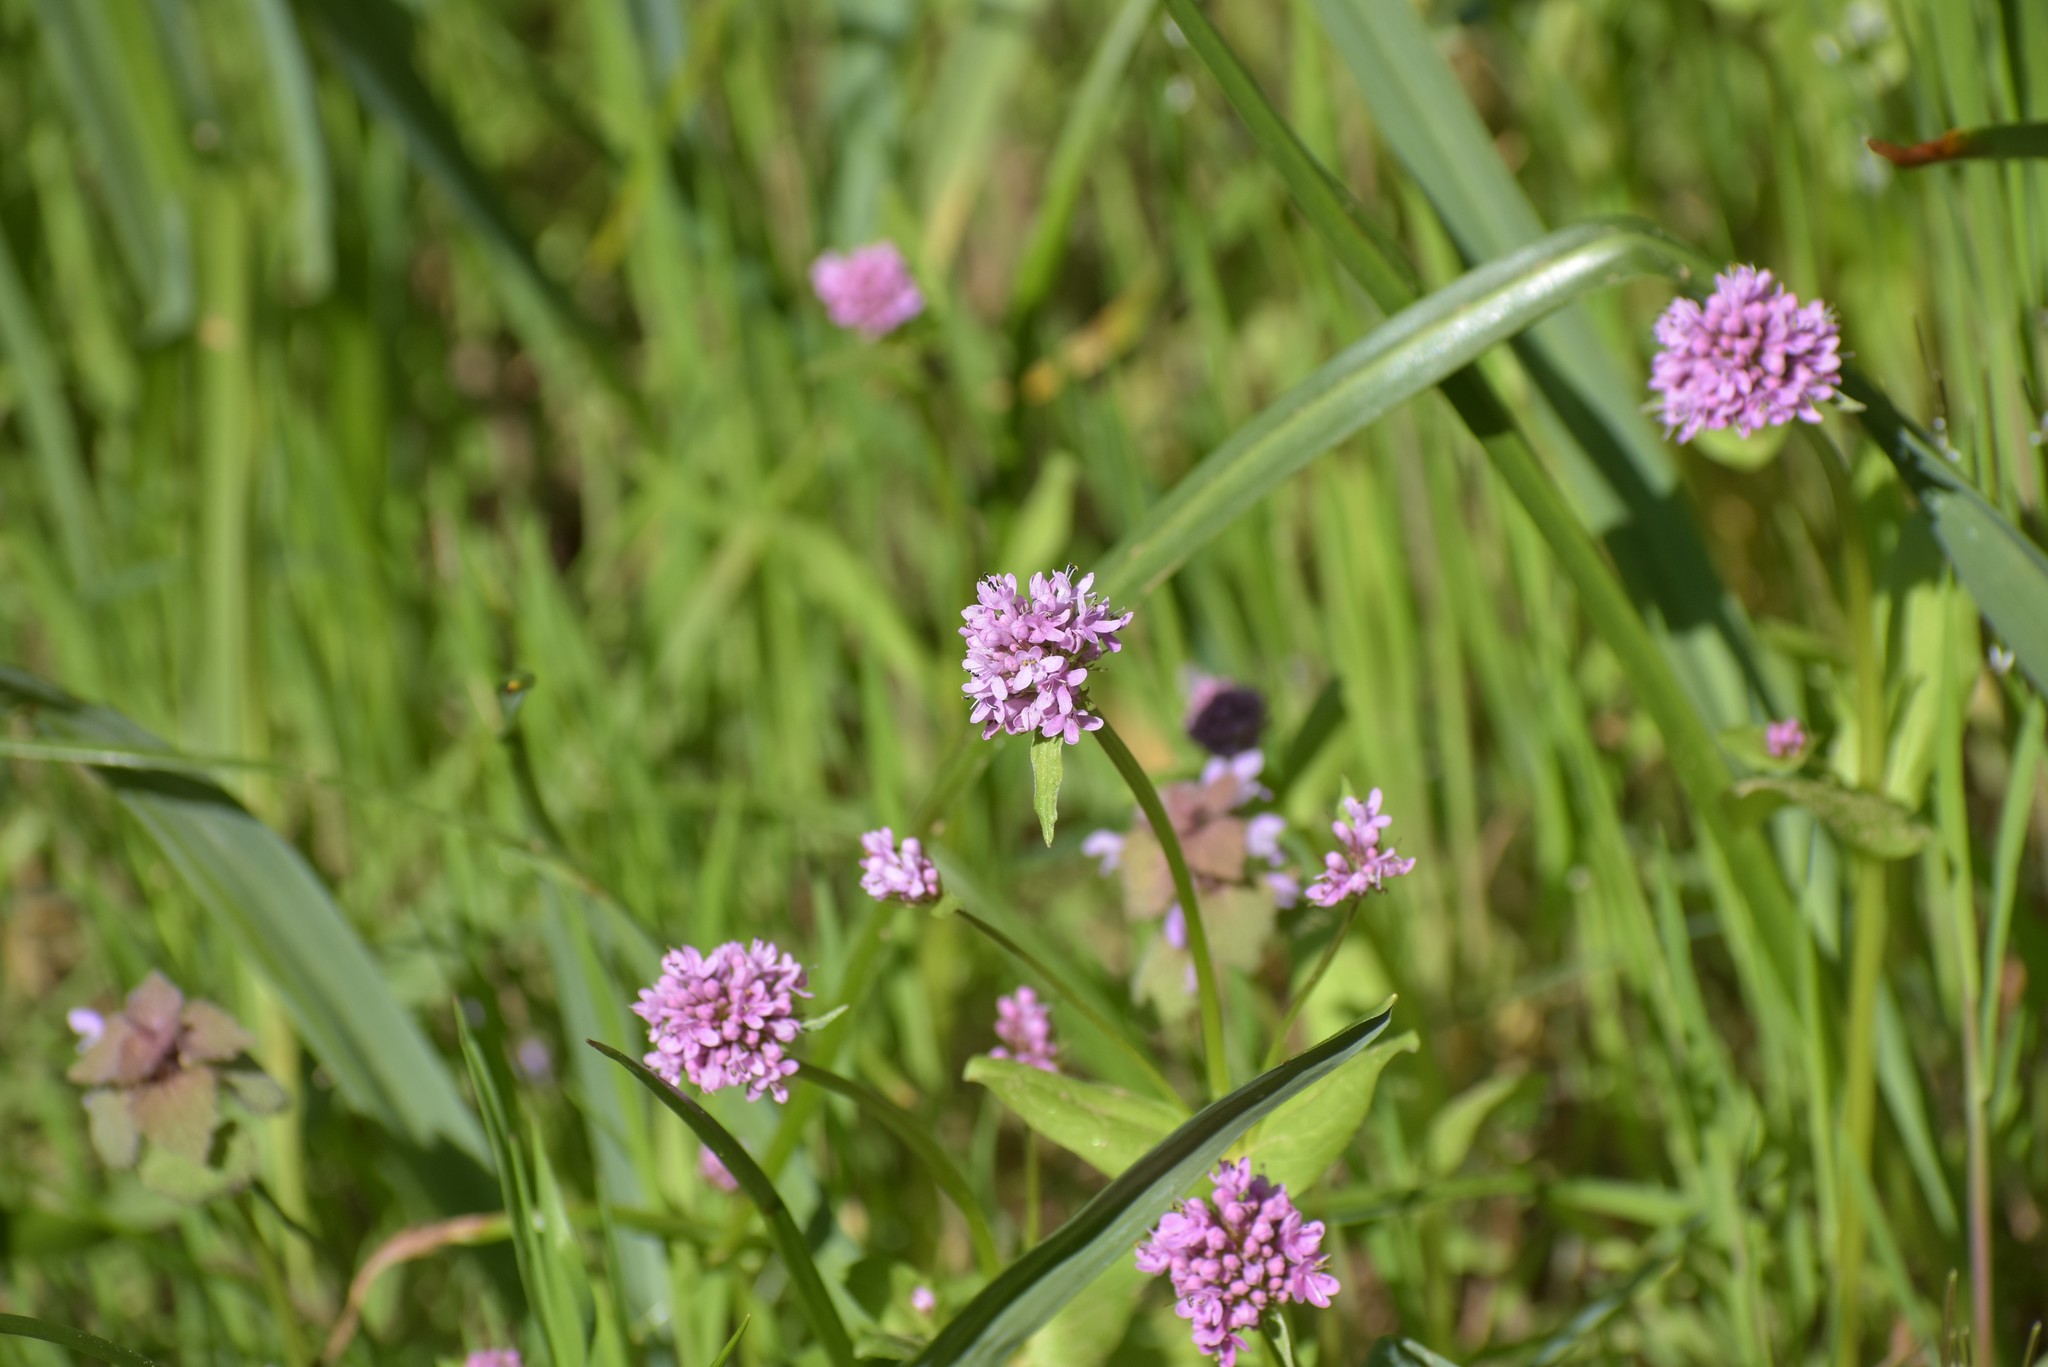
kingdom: Plantae
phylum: Tracheophyta
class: Magnoliopsida
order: Dipsacales
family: Caprifoliaceae
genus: Plectritis
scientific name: Plectritis congesta
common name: Pink plectritis
